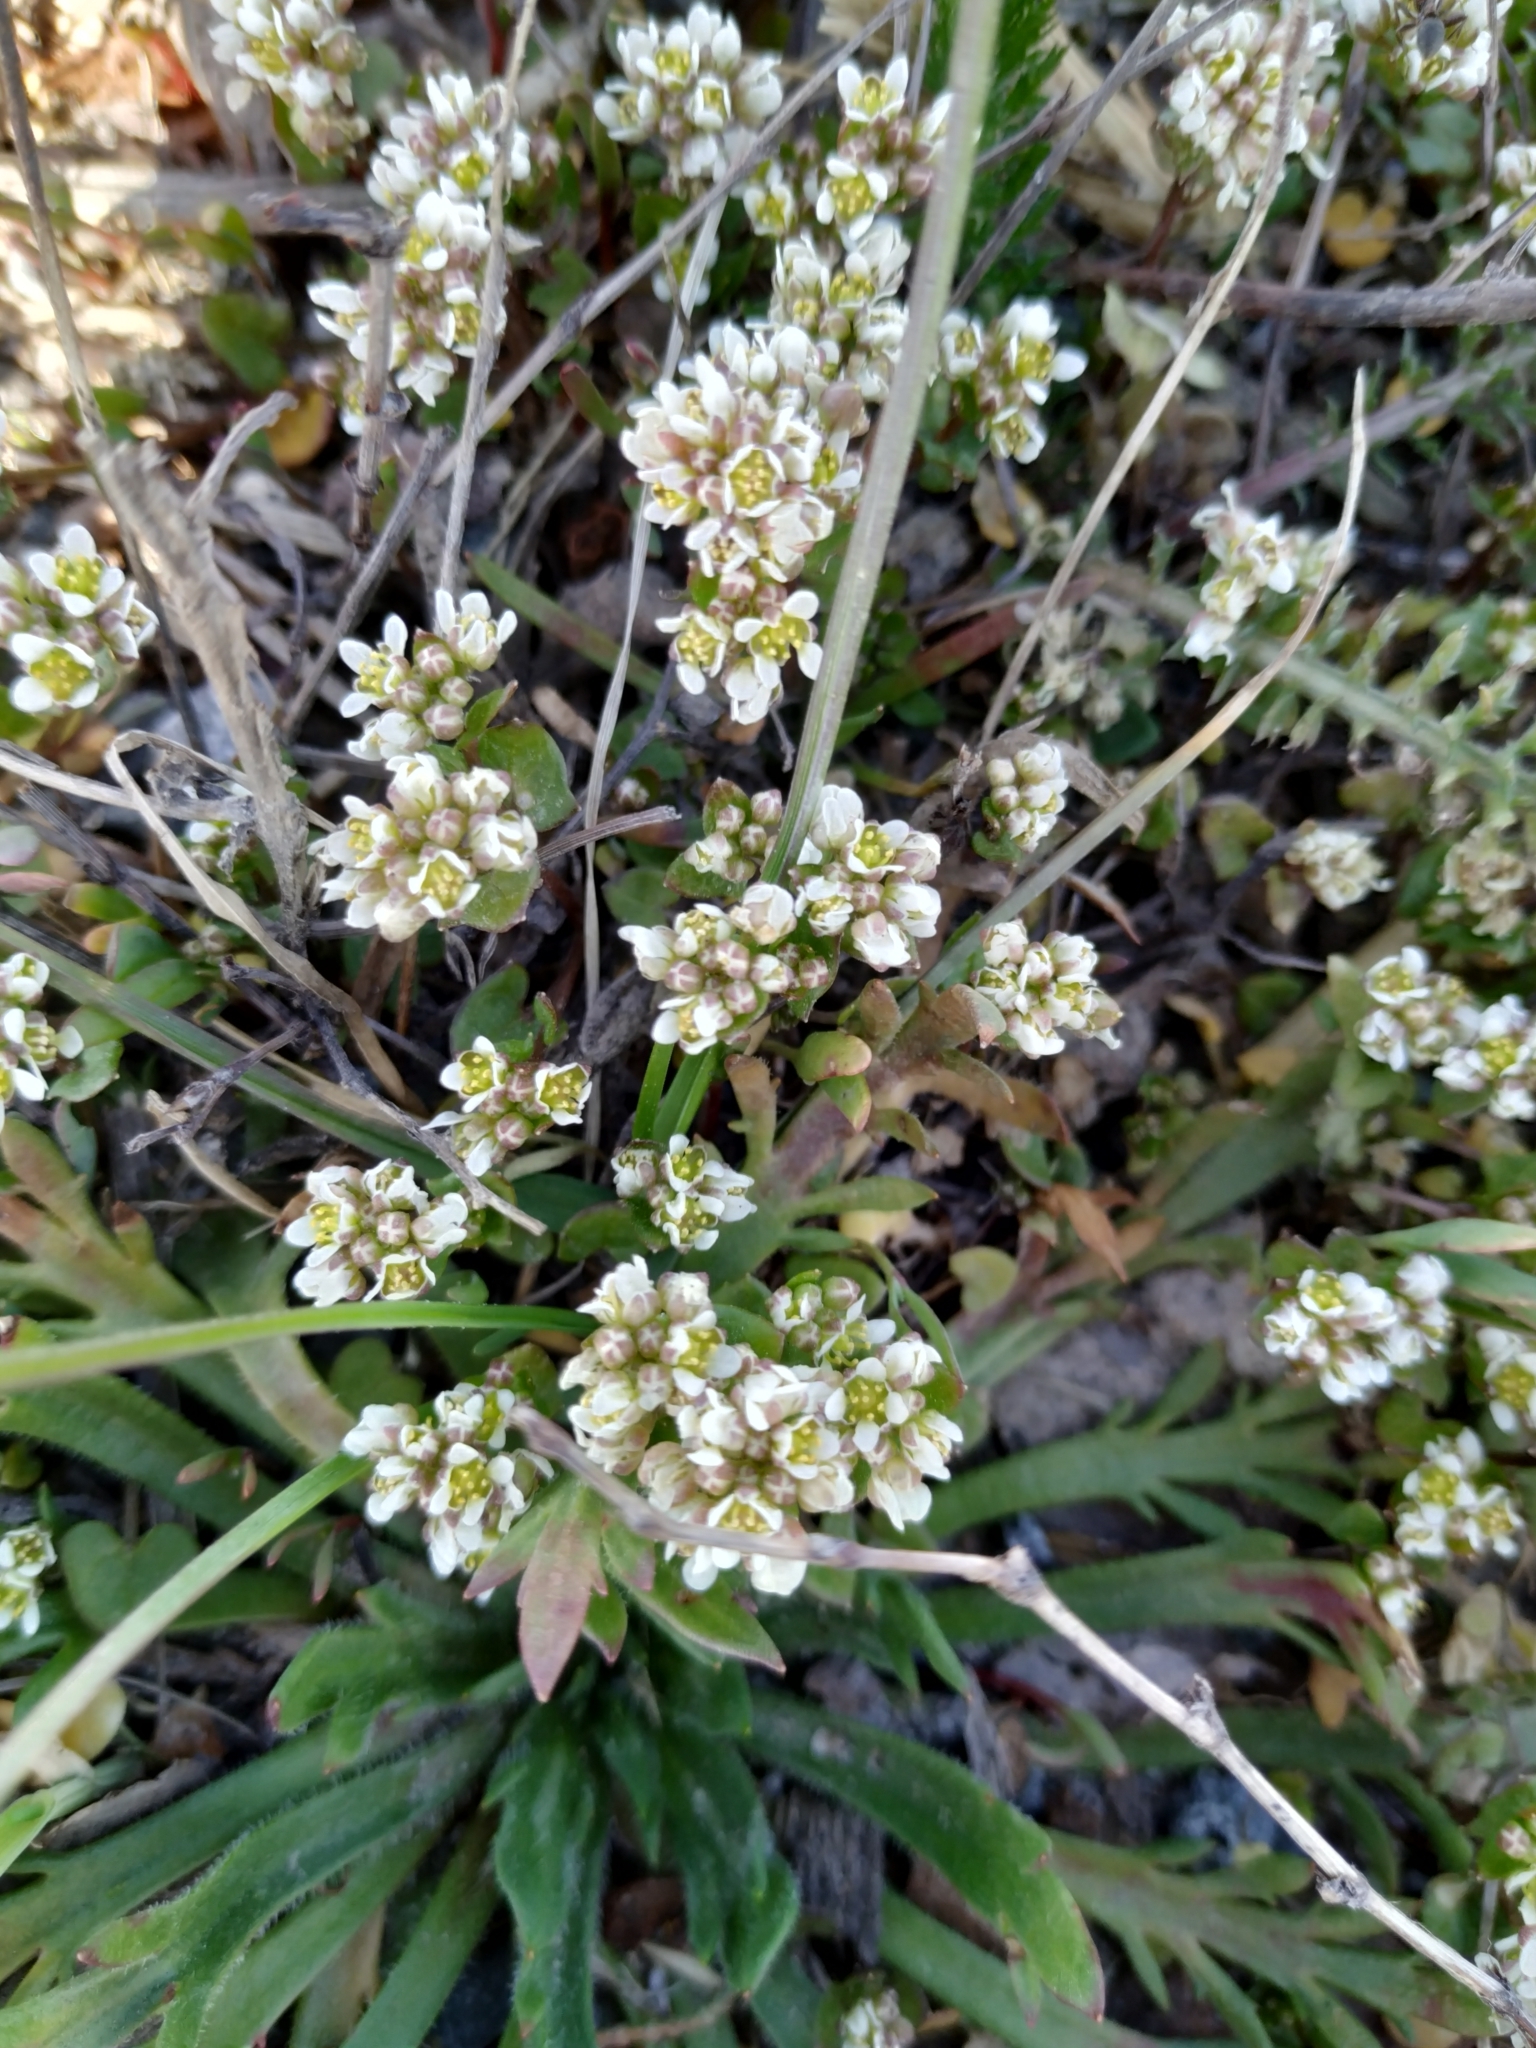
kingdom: Plantae
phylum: Tracheophyta
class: Magnoliopsida
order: Brassicales
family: Brassicaceae
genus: Cochlearia
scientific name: Cochlearia danica
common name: Early scurvygrass
